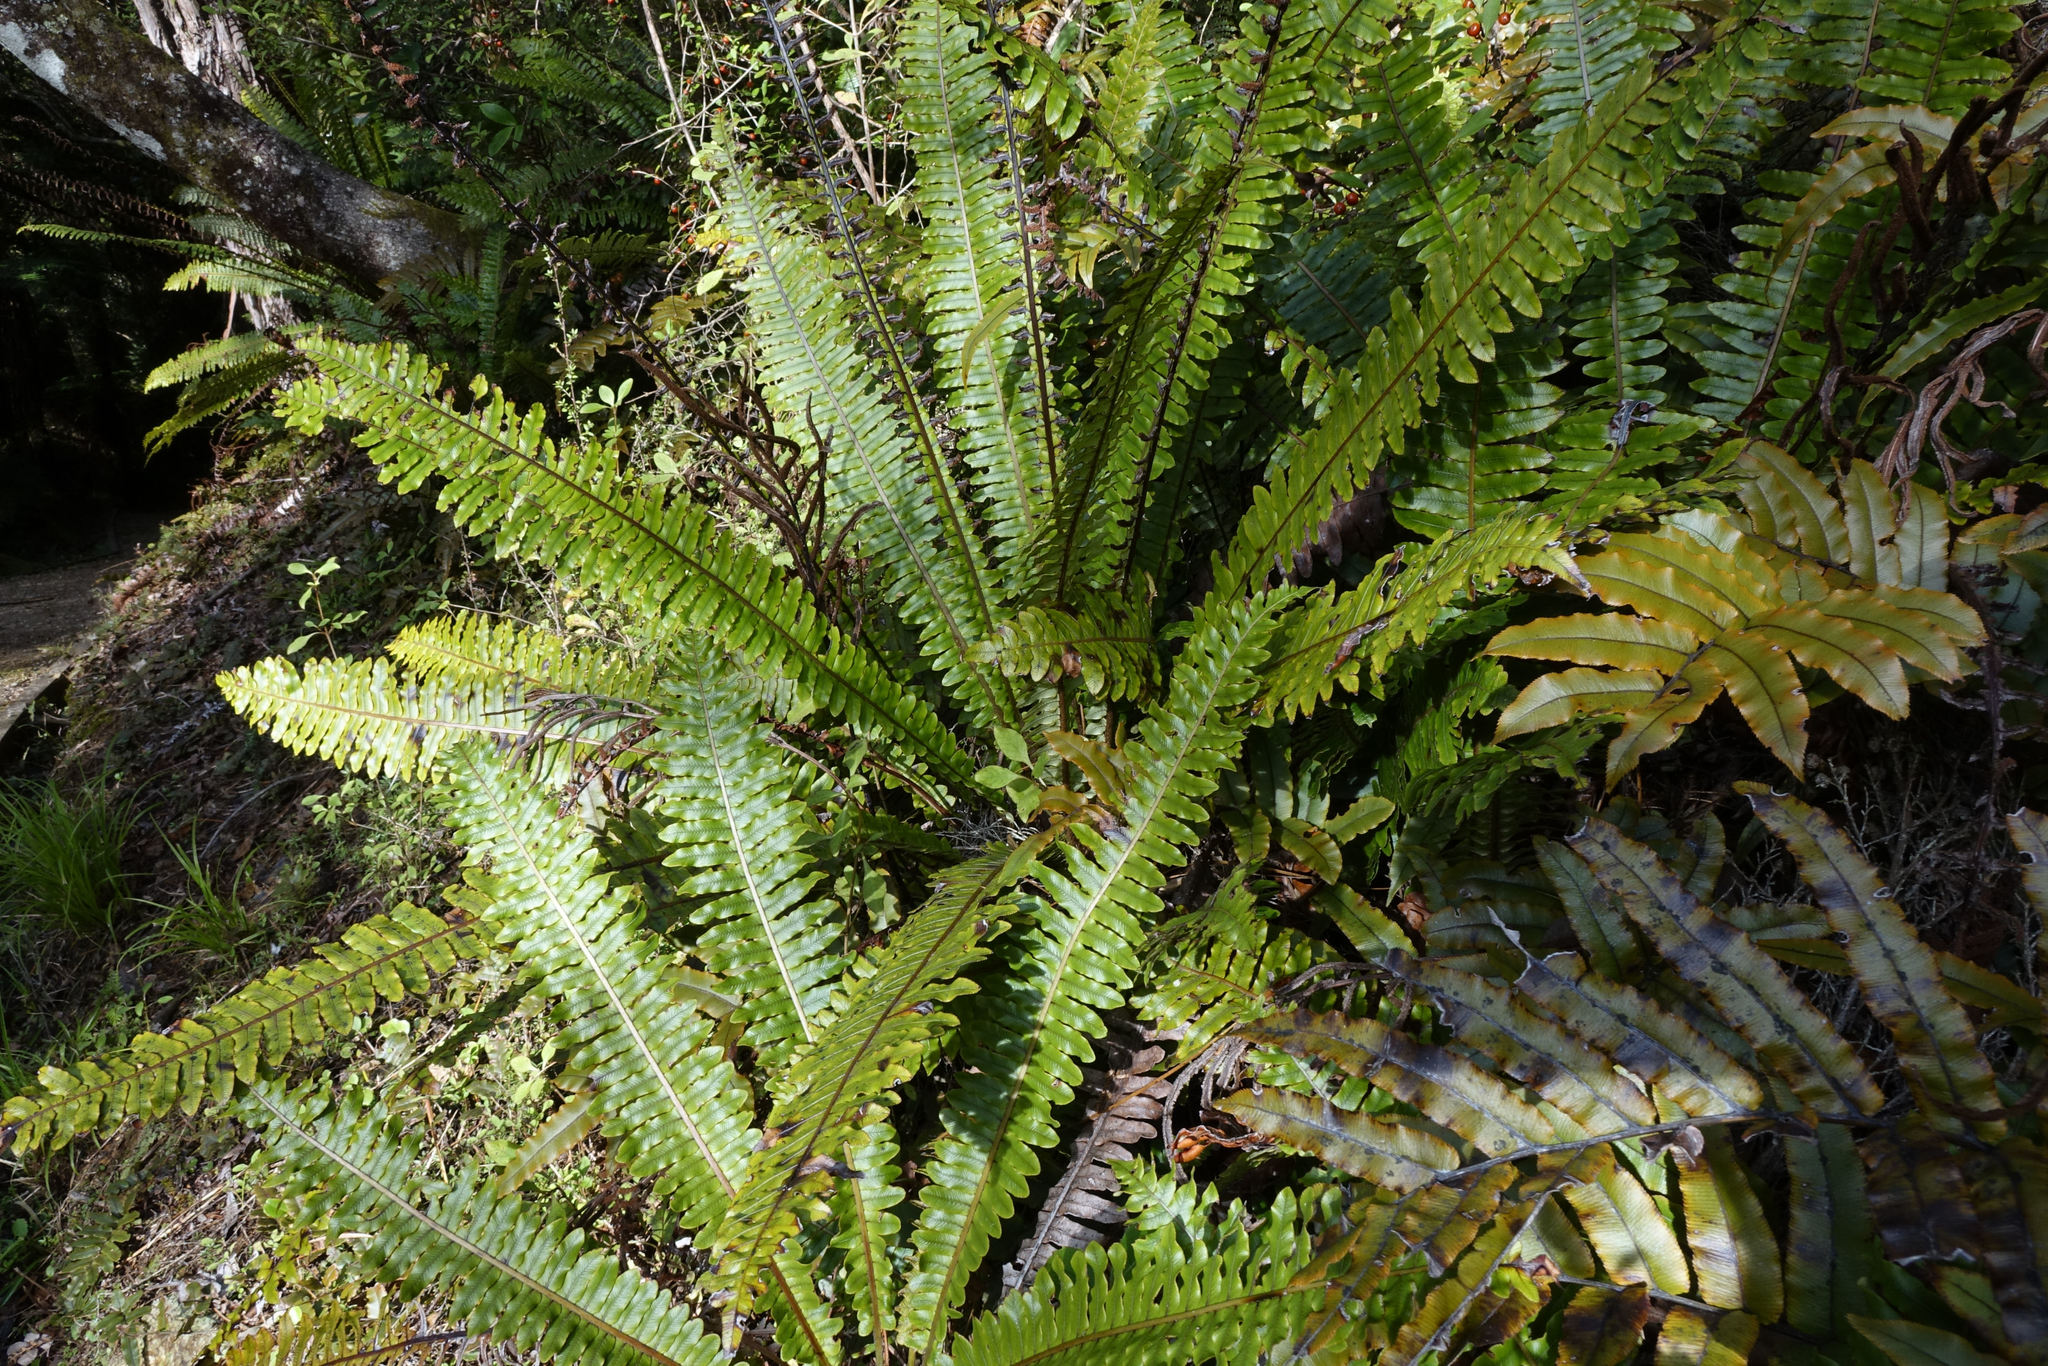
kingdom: Plantae
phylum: Tracheophyta
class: Polypodiopsida
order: Polypodiales
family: Blechnaceae
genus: Lomaria
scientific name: Lomaria discolor
